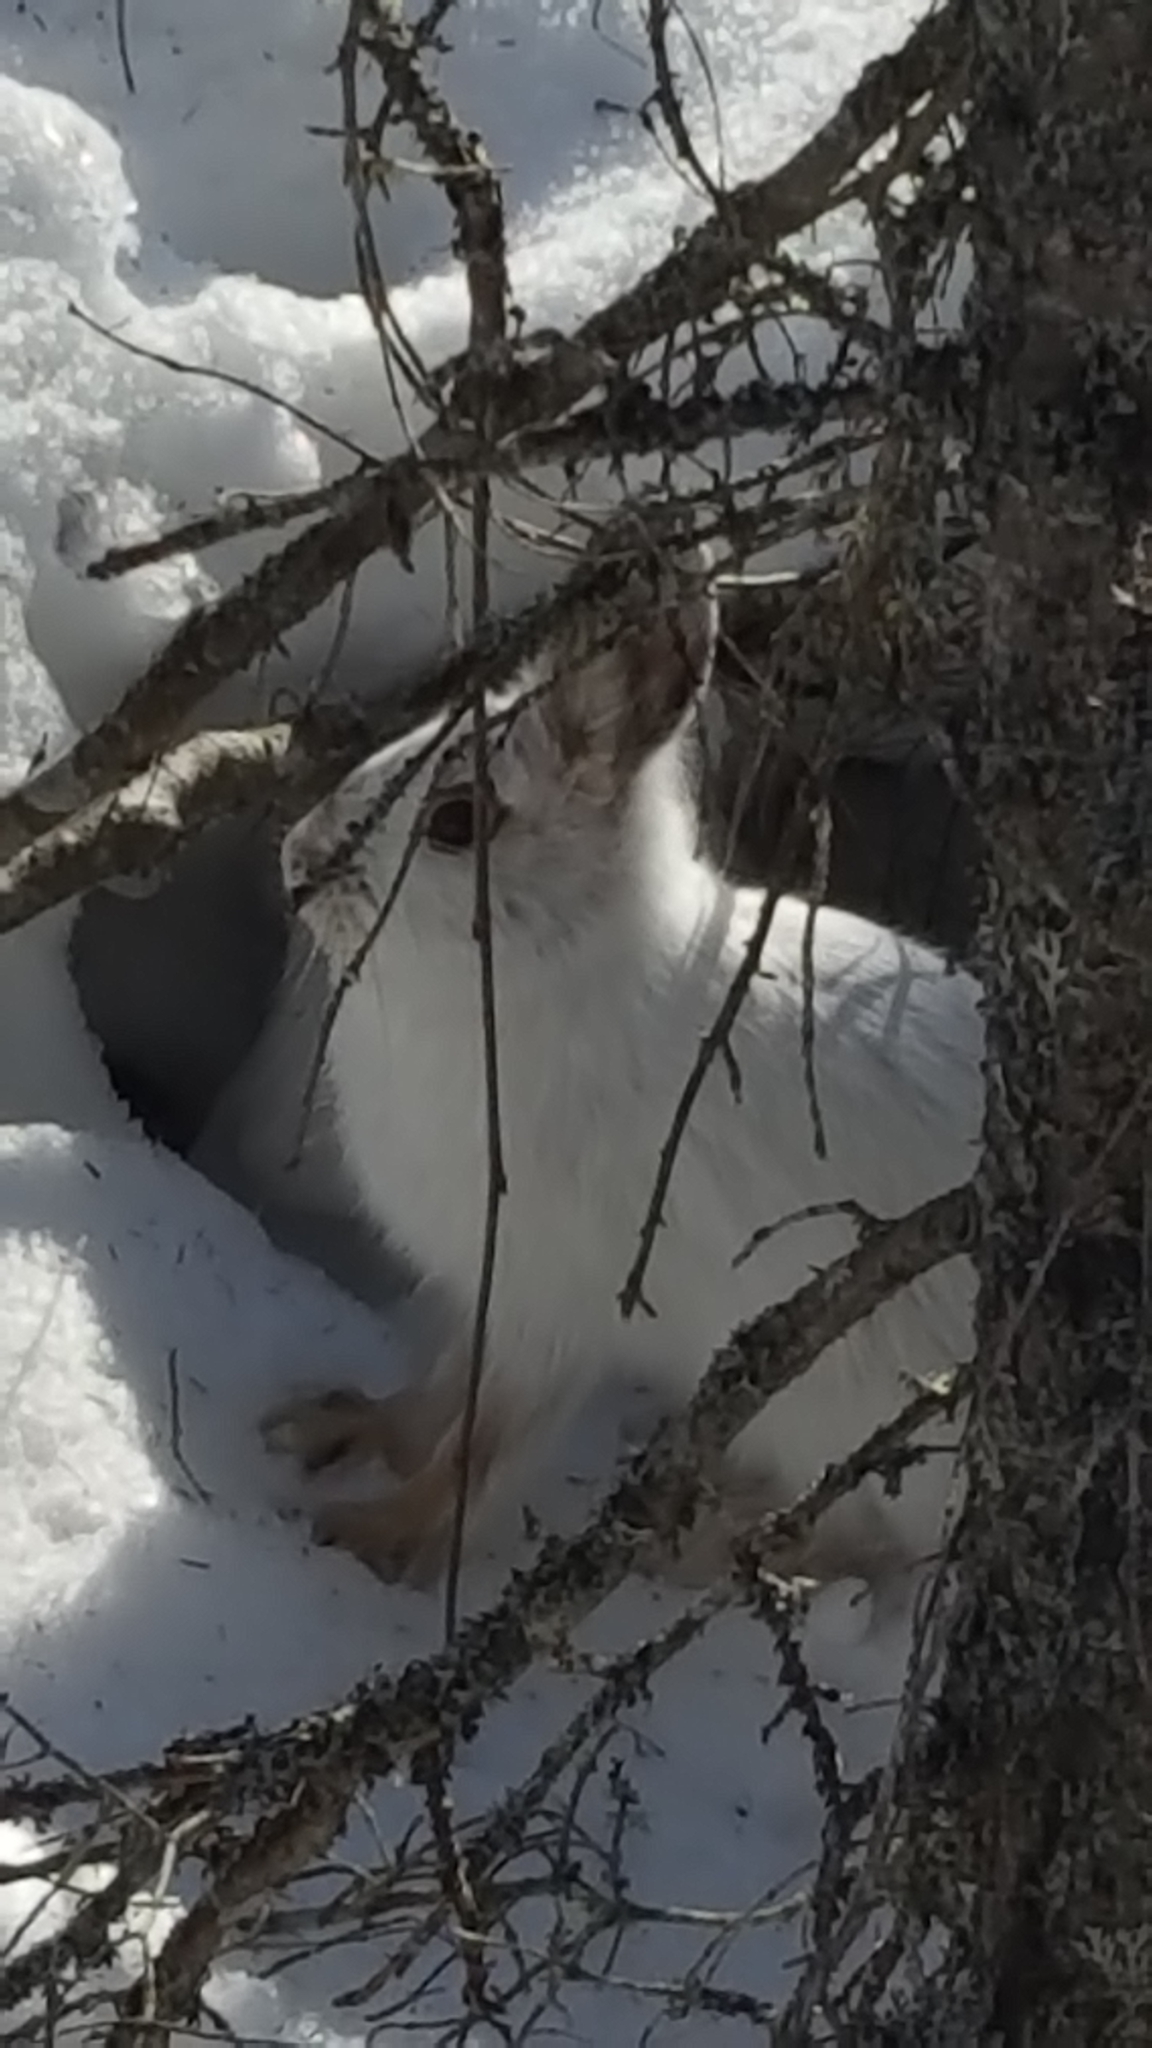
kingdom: Animalia
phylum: Chordata
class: Mammalia
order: Lagomorpha
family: Leporidae
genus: Lepus
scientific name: Lepus americanus
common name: Snowshoe hare
